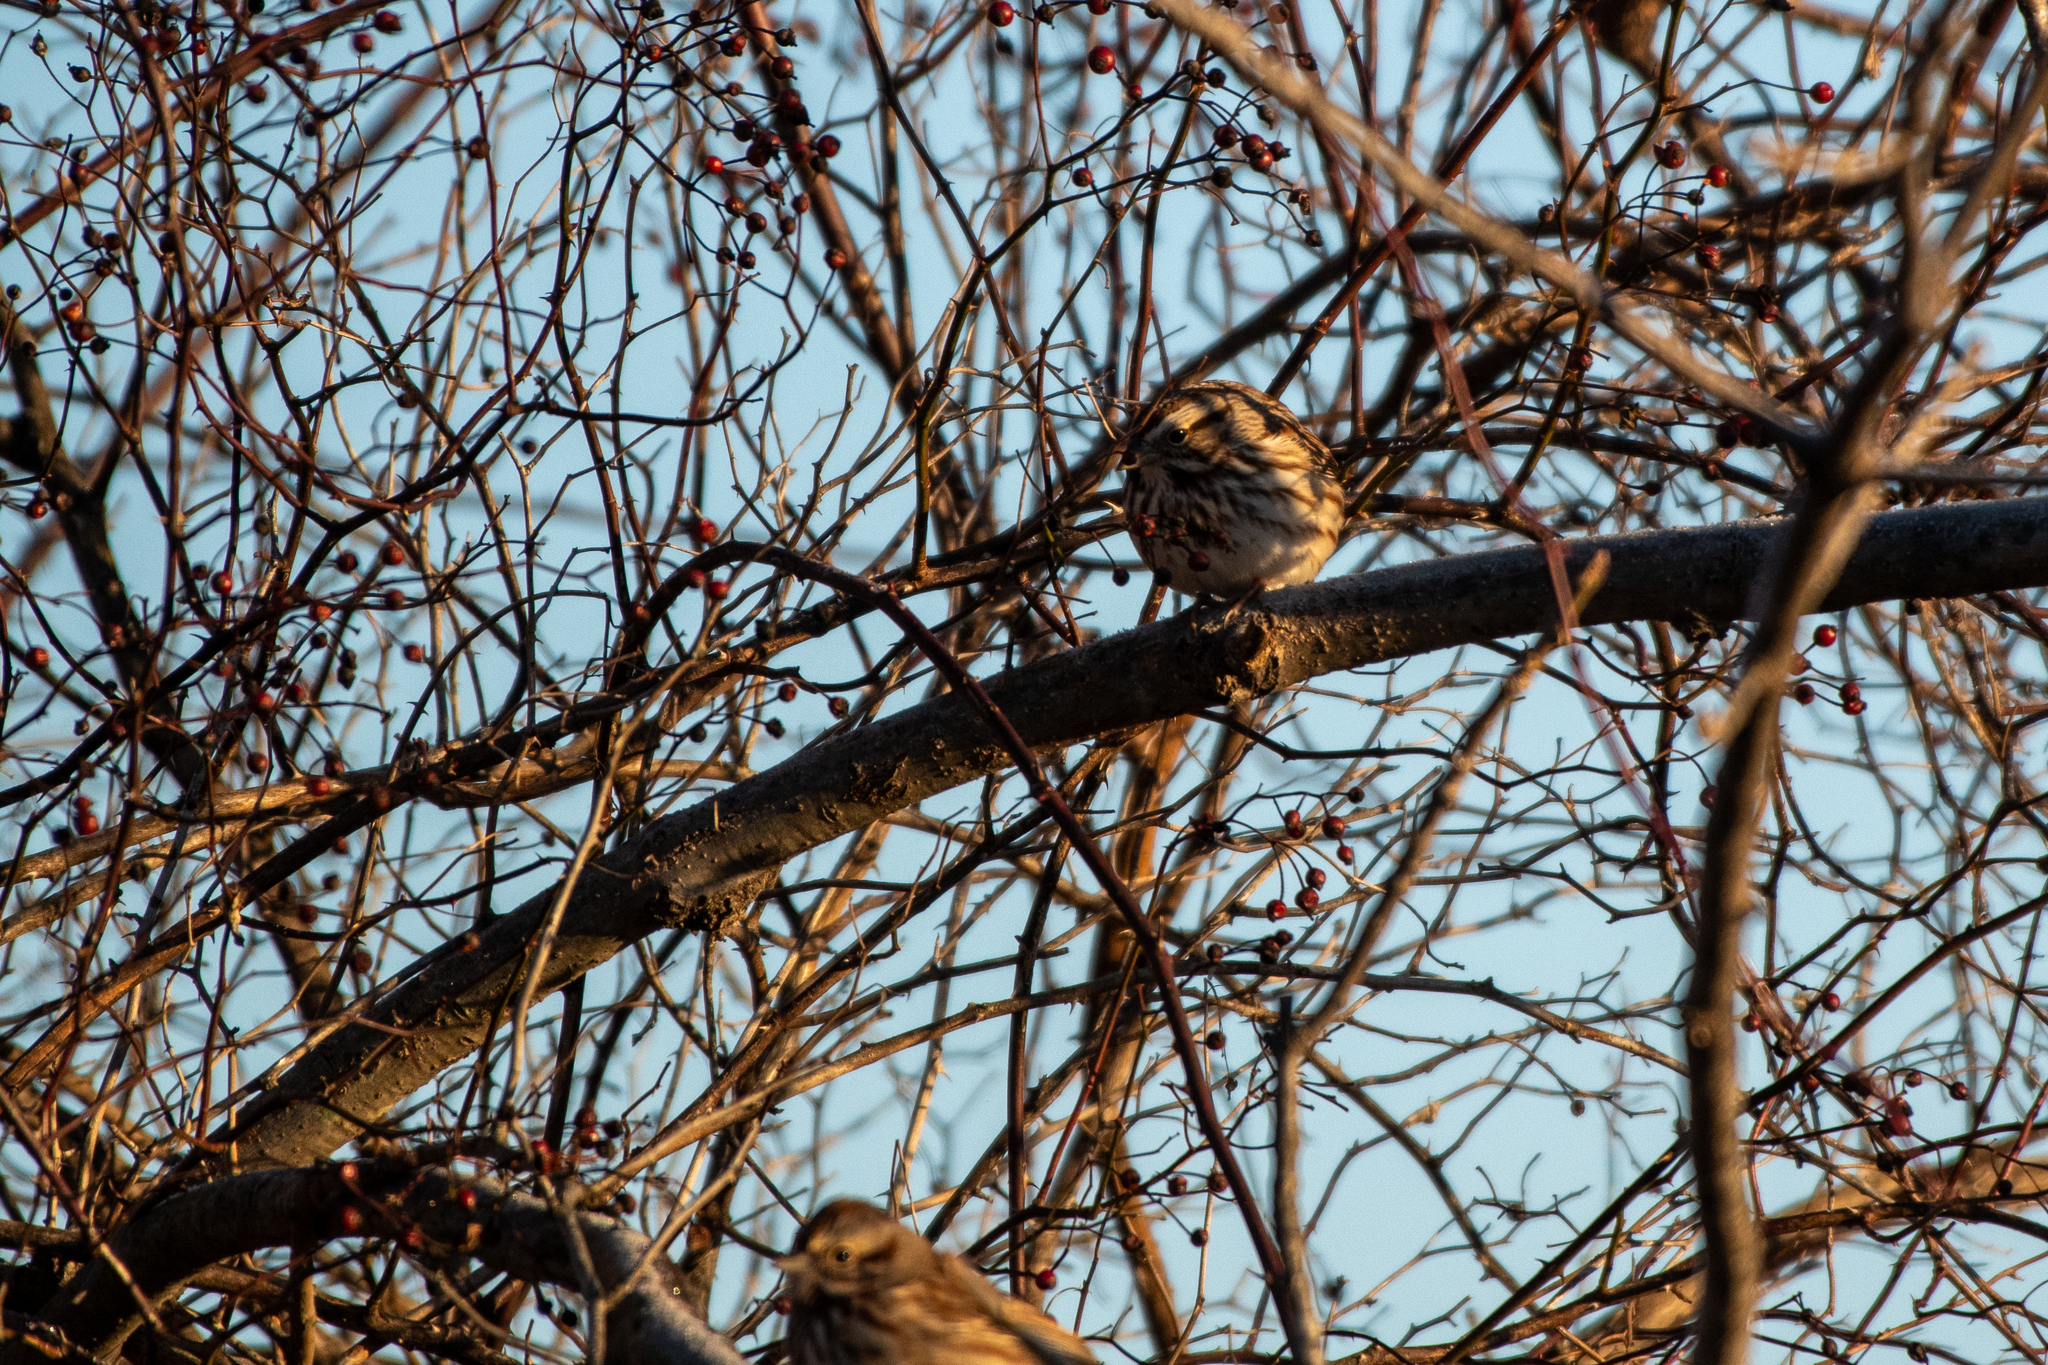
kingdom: Animalia
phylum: Chordata
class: Aves
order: Passeriformes
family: Passerellidae
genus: Melospiza
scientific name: Melospiza melodia
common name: Song sparrow
